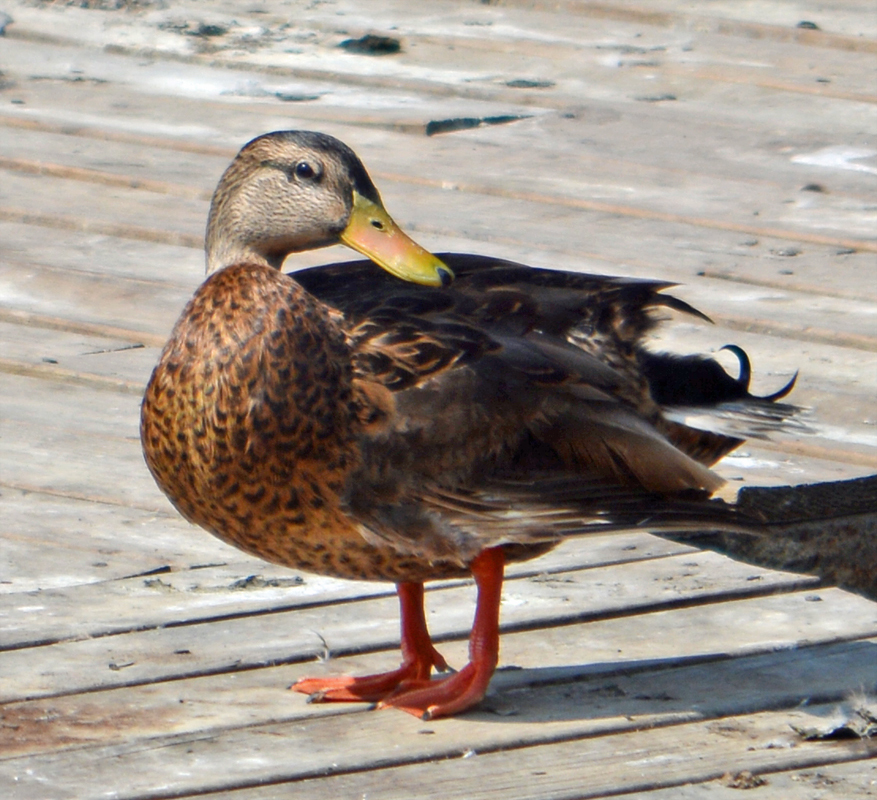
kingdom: Animalia
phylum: Chordata
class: Aves
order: Anseriformes
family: Anatidae
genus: Anas
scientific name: Anas
